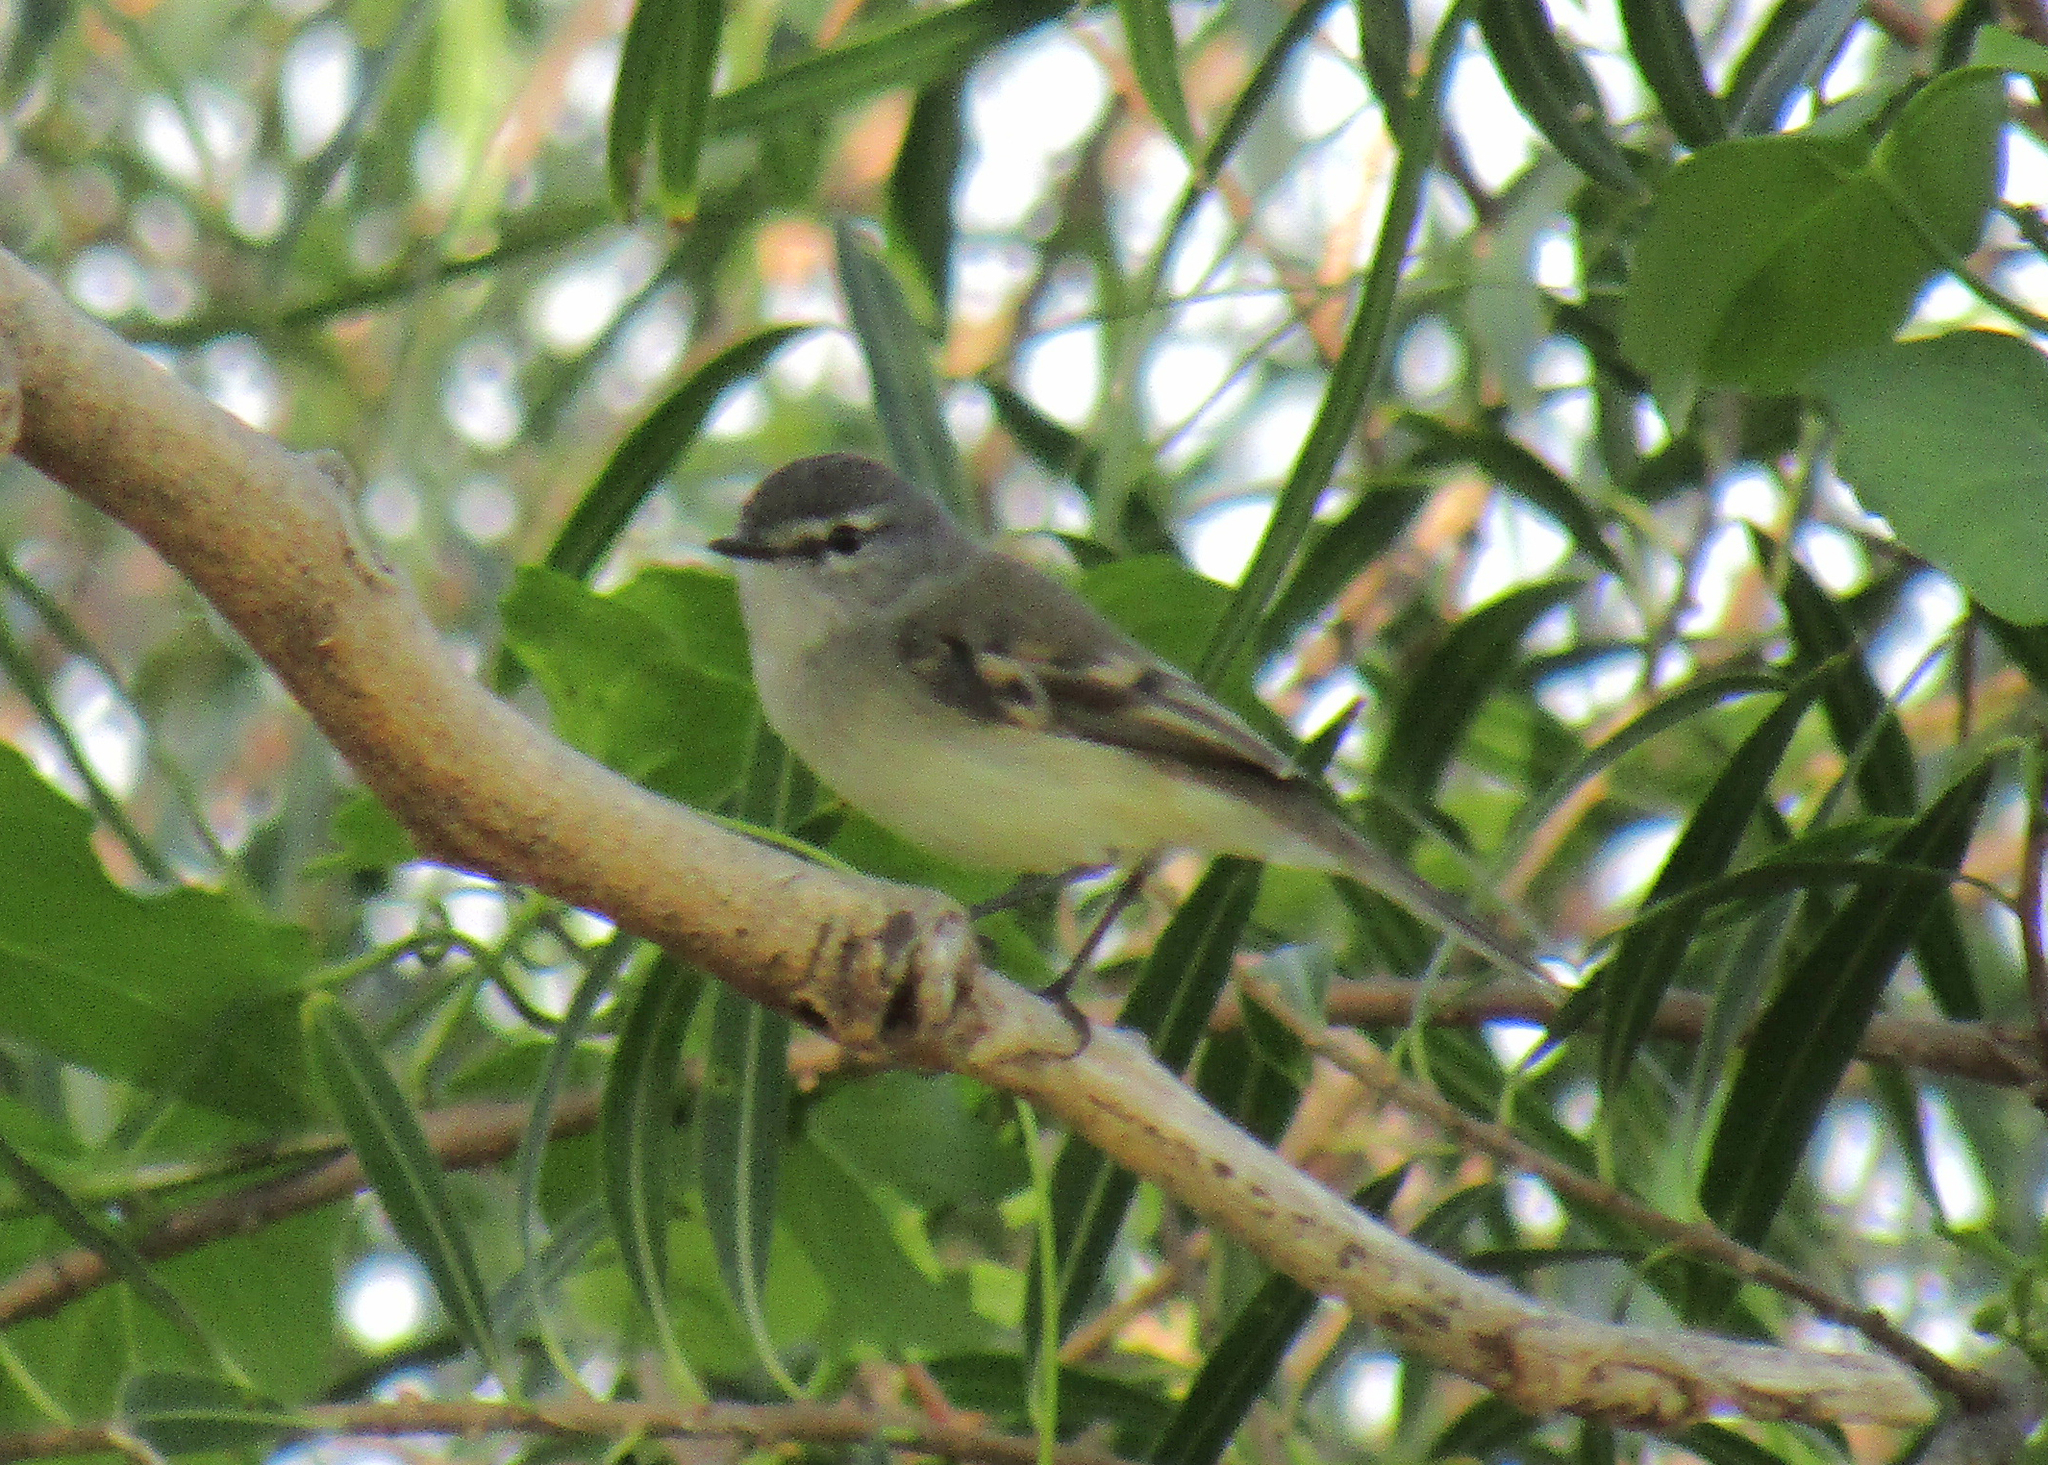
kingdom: Animalia
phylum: Chordata
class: Aves
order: Passeriformes
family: Tyrannidae
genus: Serpophaga
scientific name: Serpophaga subcristata
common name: White-crested tyrannulet
